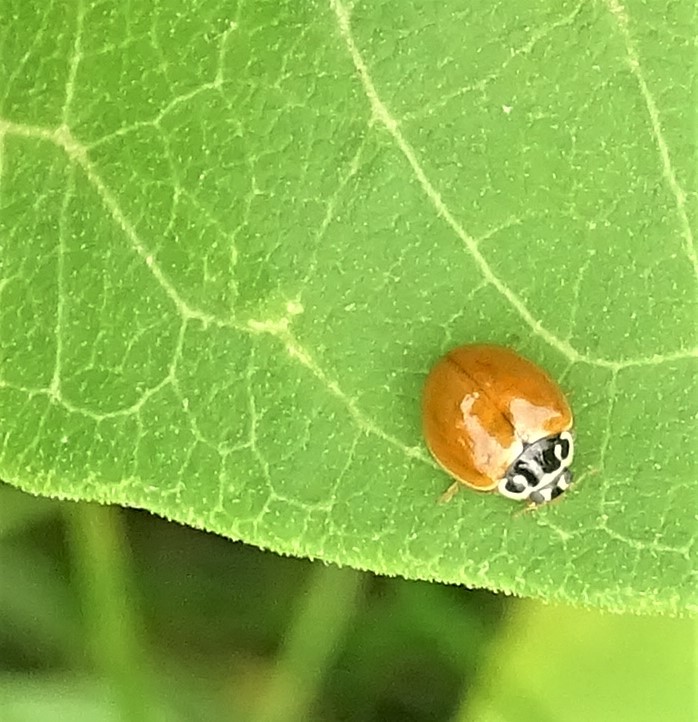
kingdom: Animalia
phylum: Arthropoda
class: Insecta
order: Coleoptera
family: Coccinellidae
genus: Cycloneda
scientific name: Cycloneda munda
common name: Polished lady beetle
